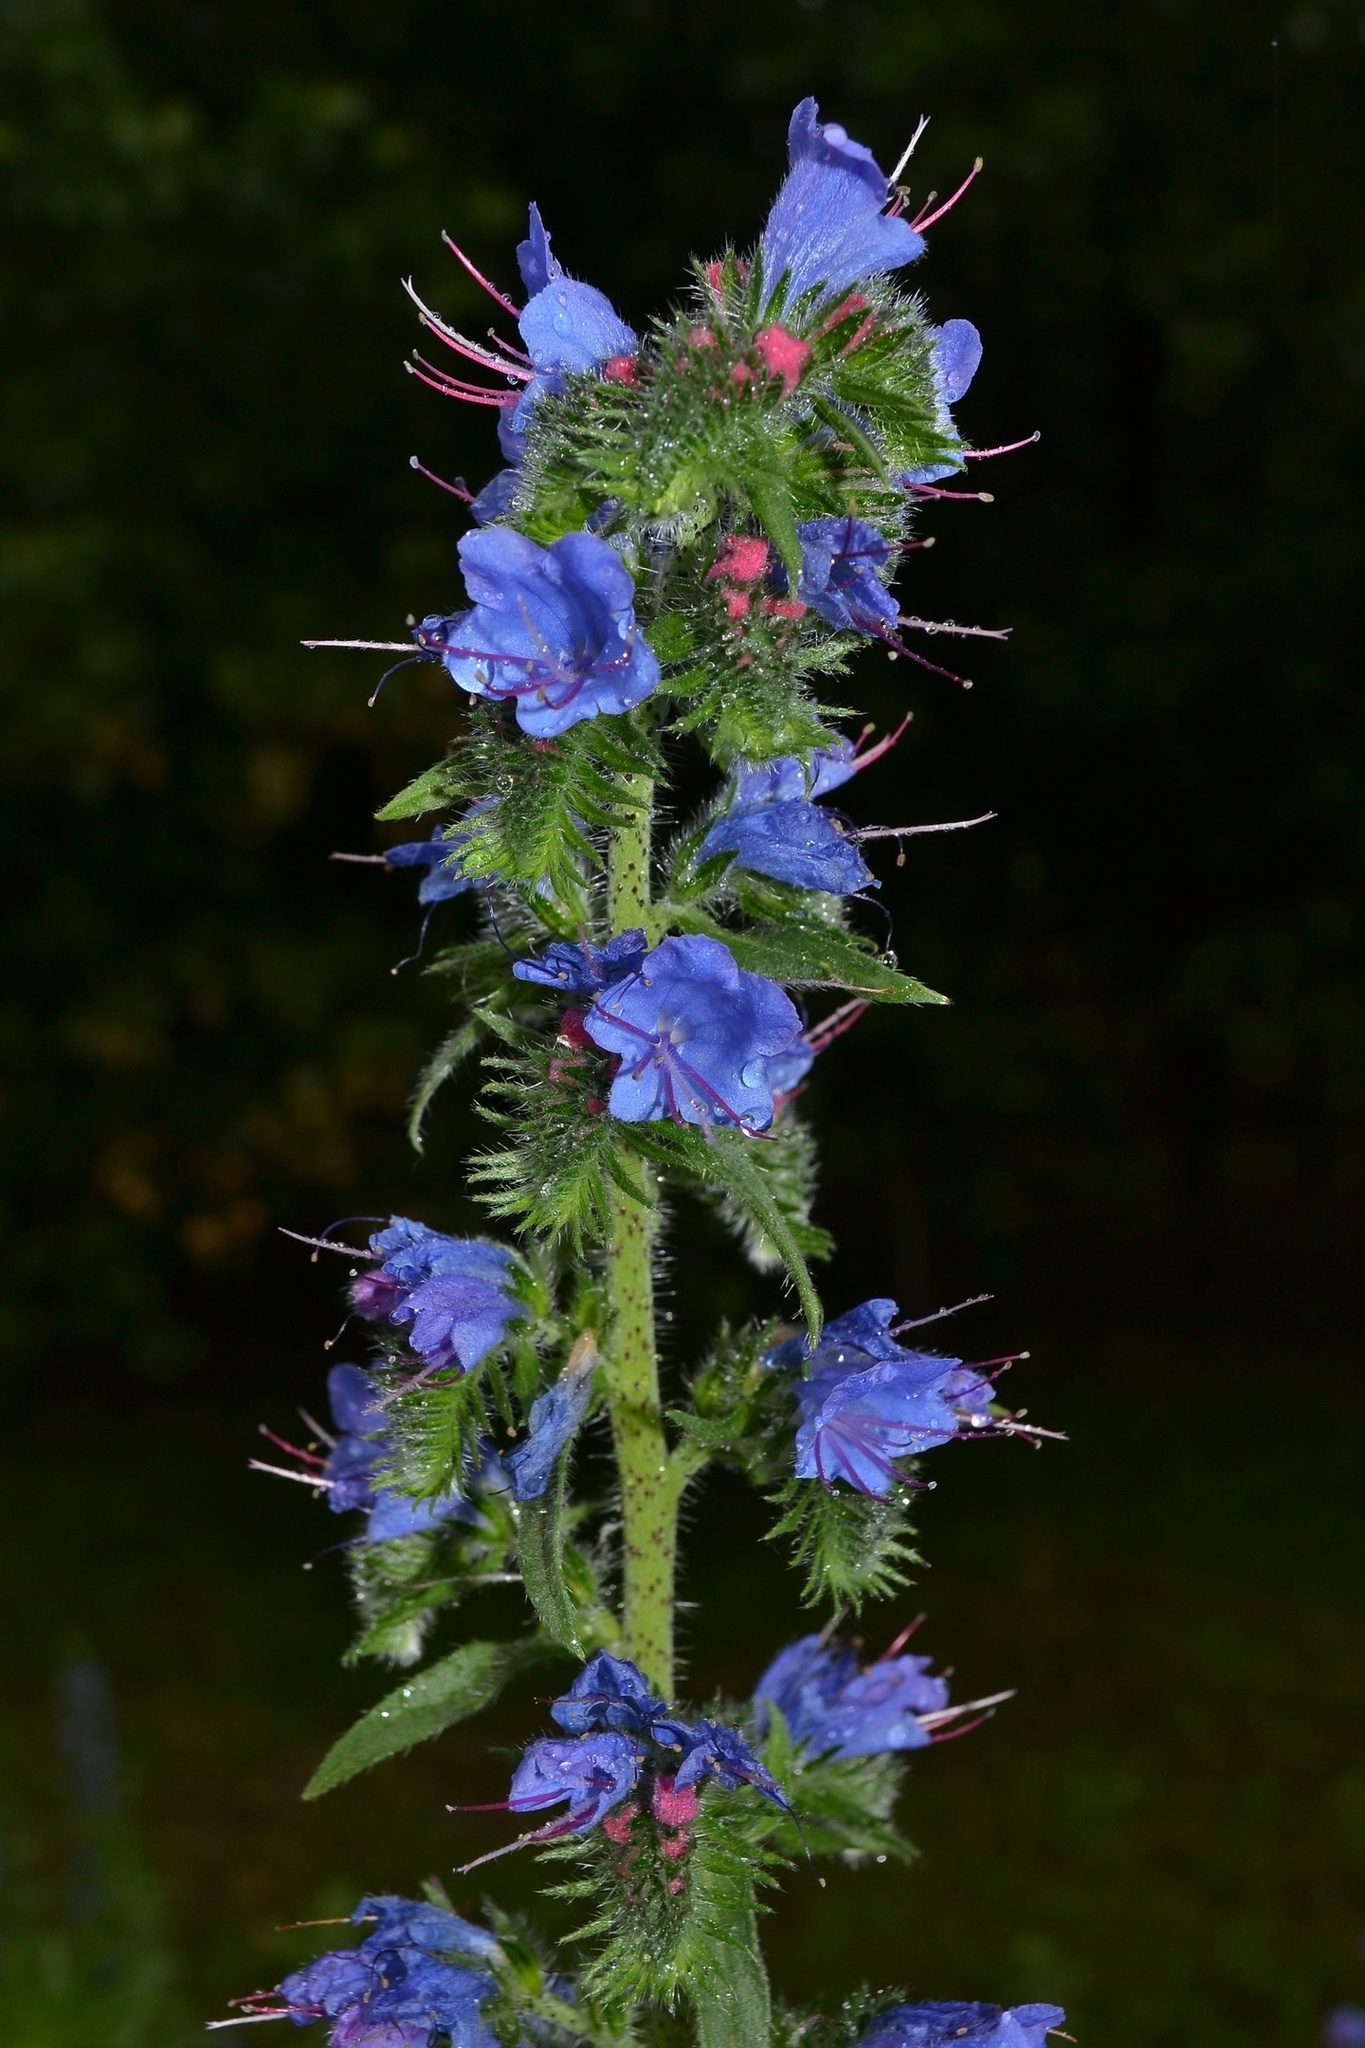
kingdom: Plantae
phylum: Tracheophyta
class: Magnoliopsida
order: Boraginales
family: Boraginaceae
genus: Echium
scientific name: Echium vulgare
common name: Common viper's bugloss
